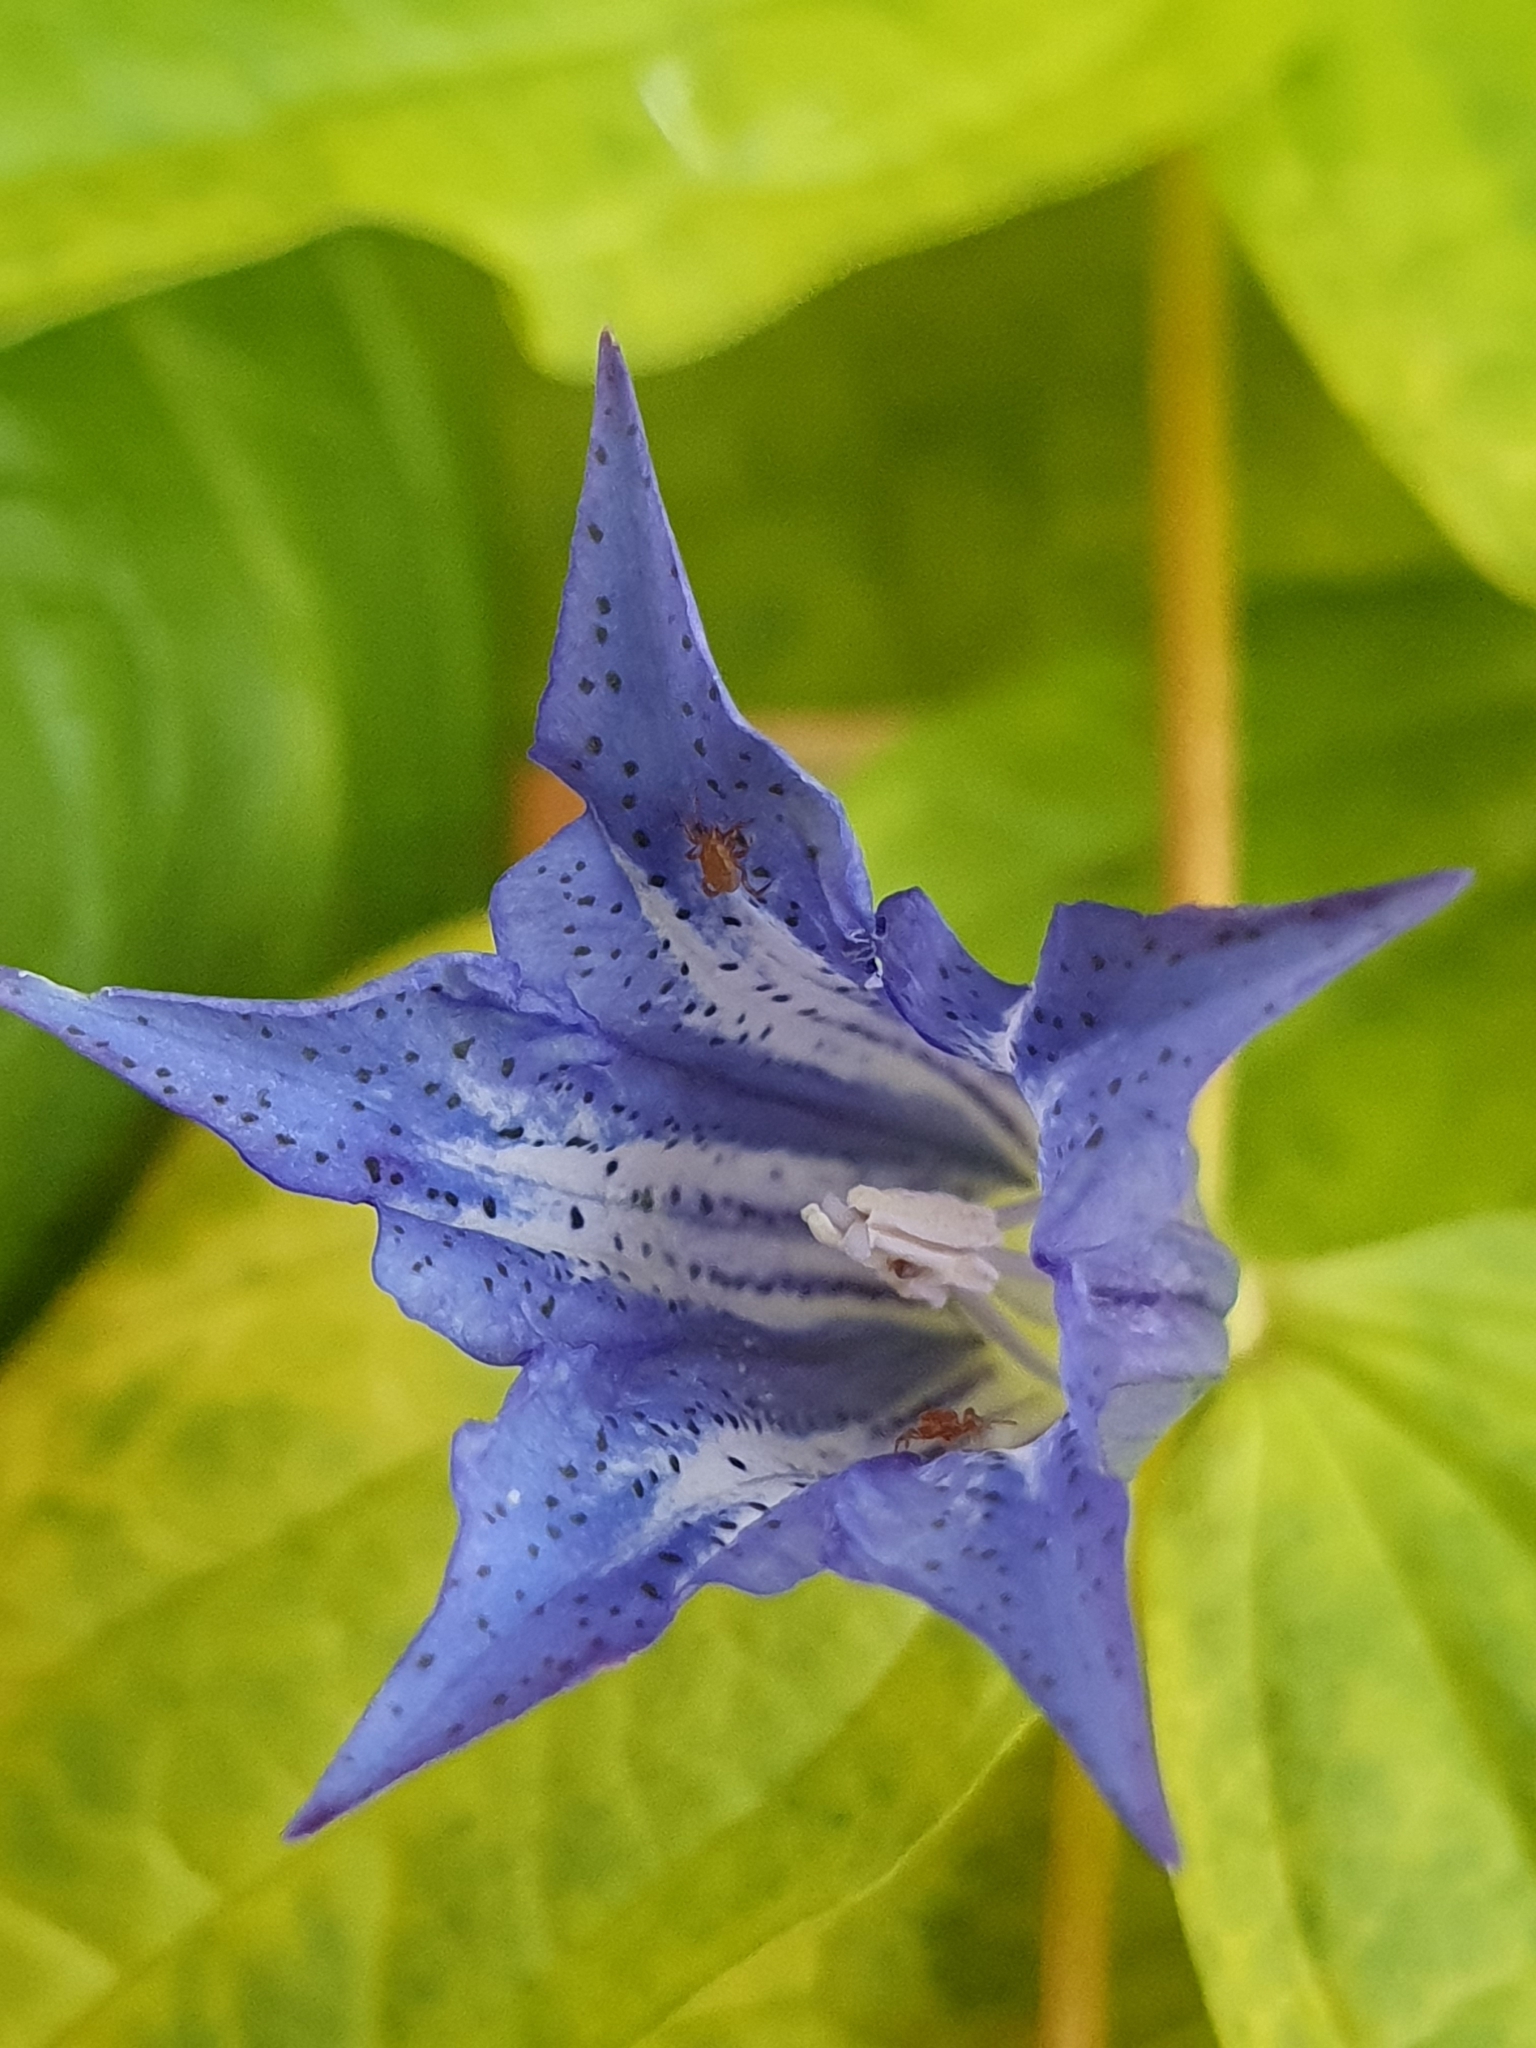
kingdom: Plantae
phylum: Tracheophyta
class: Magnoliopsida
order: Gentianales
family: Gentianaceae
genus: Gentiana
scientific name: Gentiana asclepiadea
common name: Willow gentian
